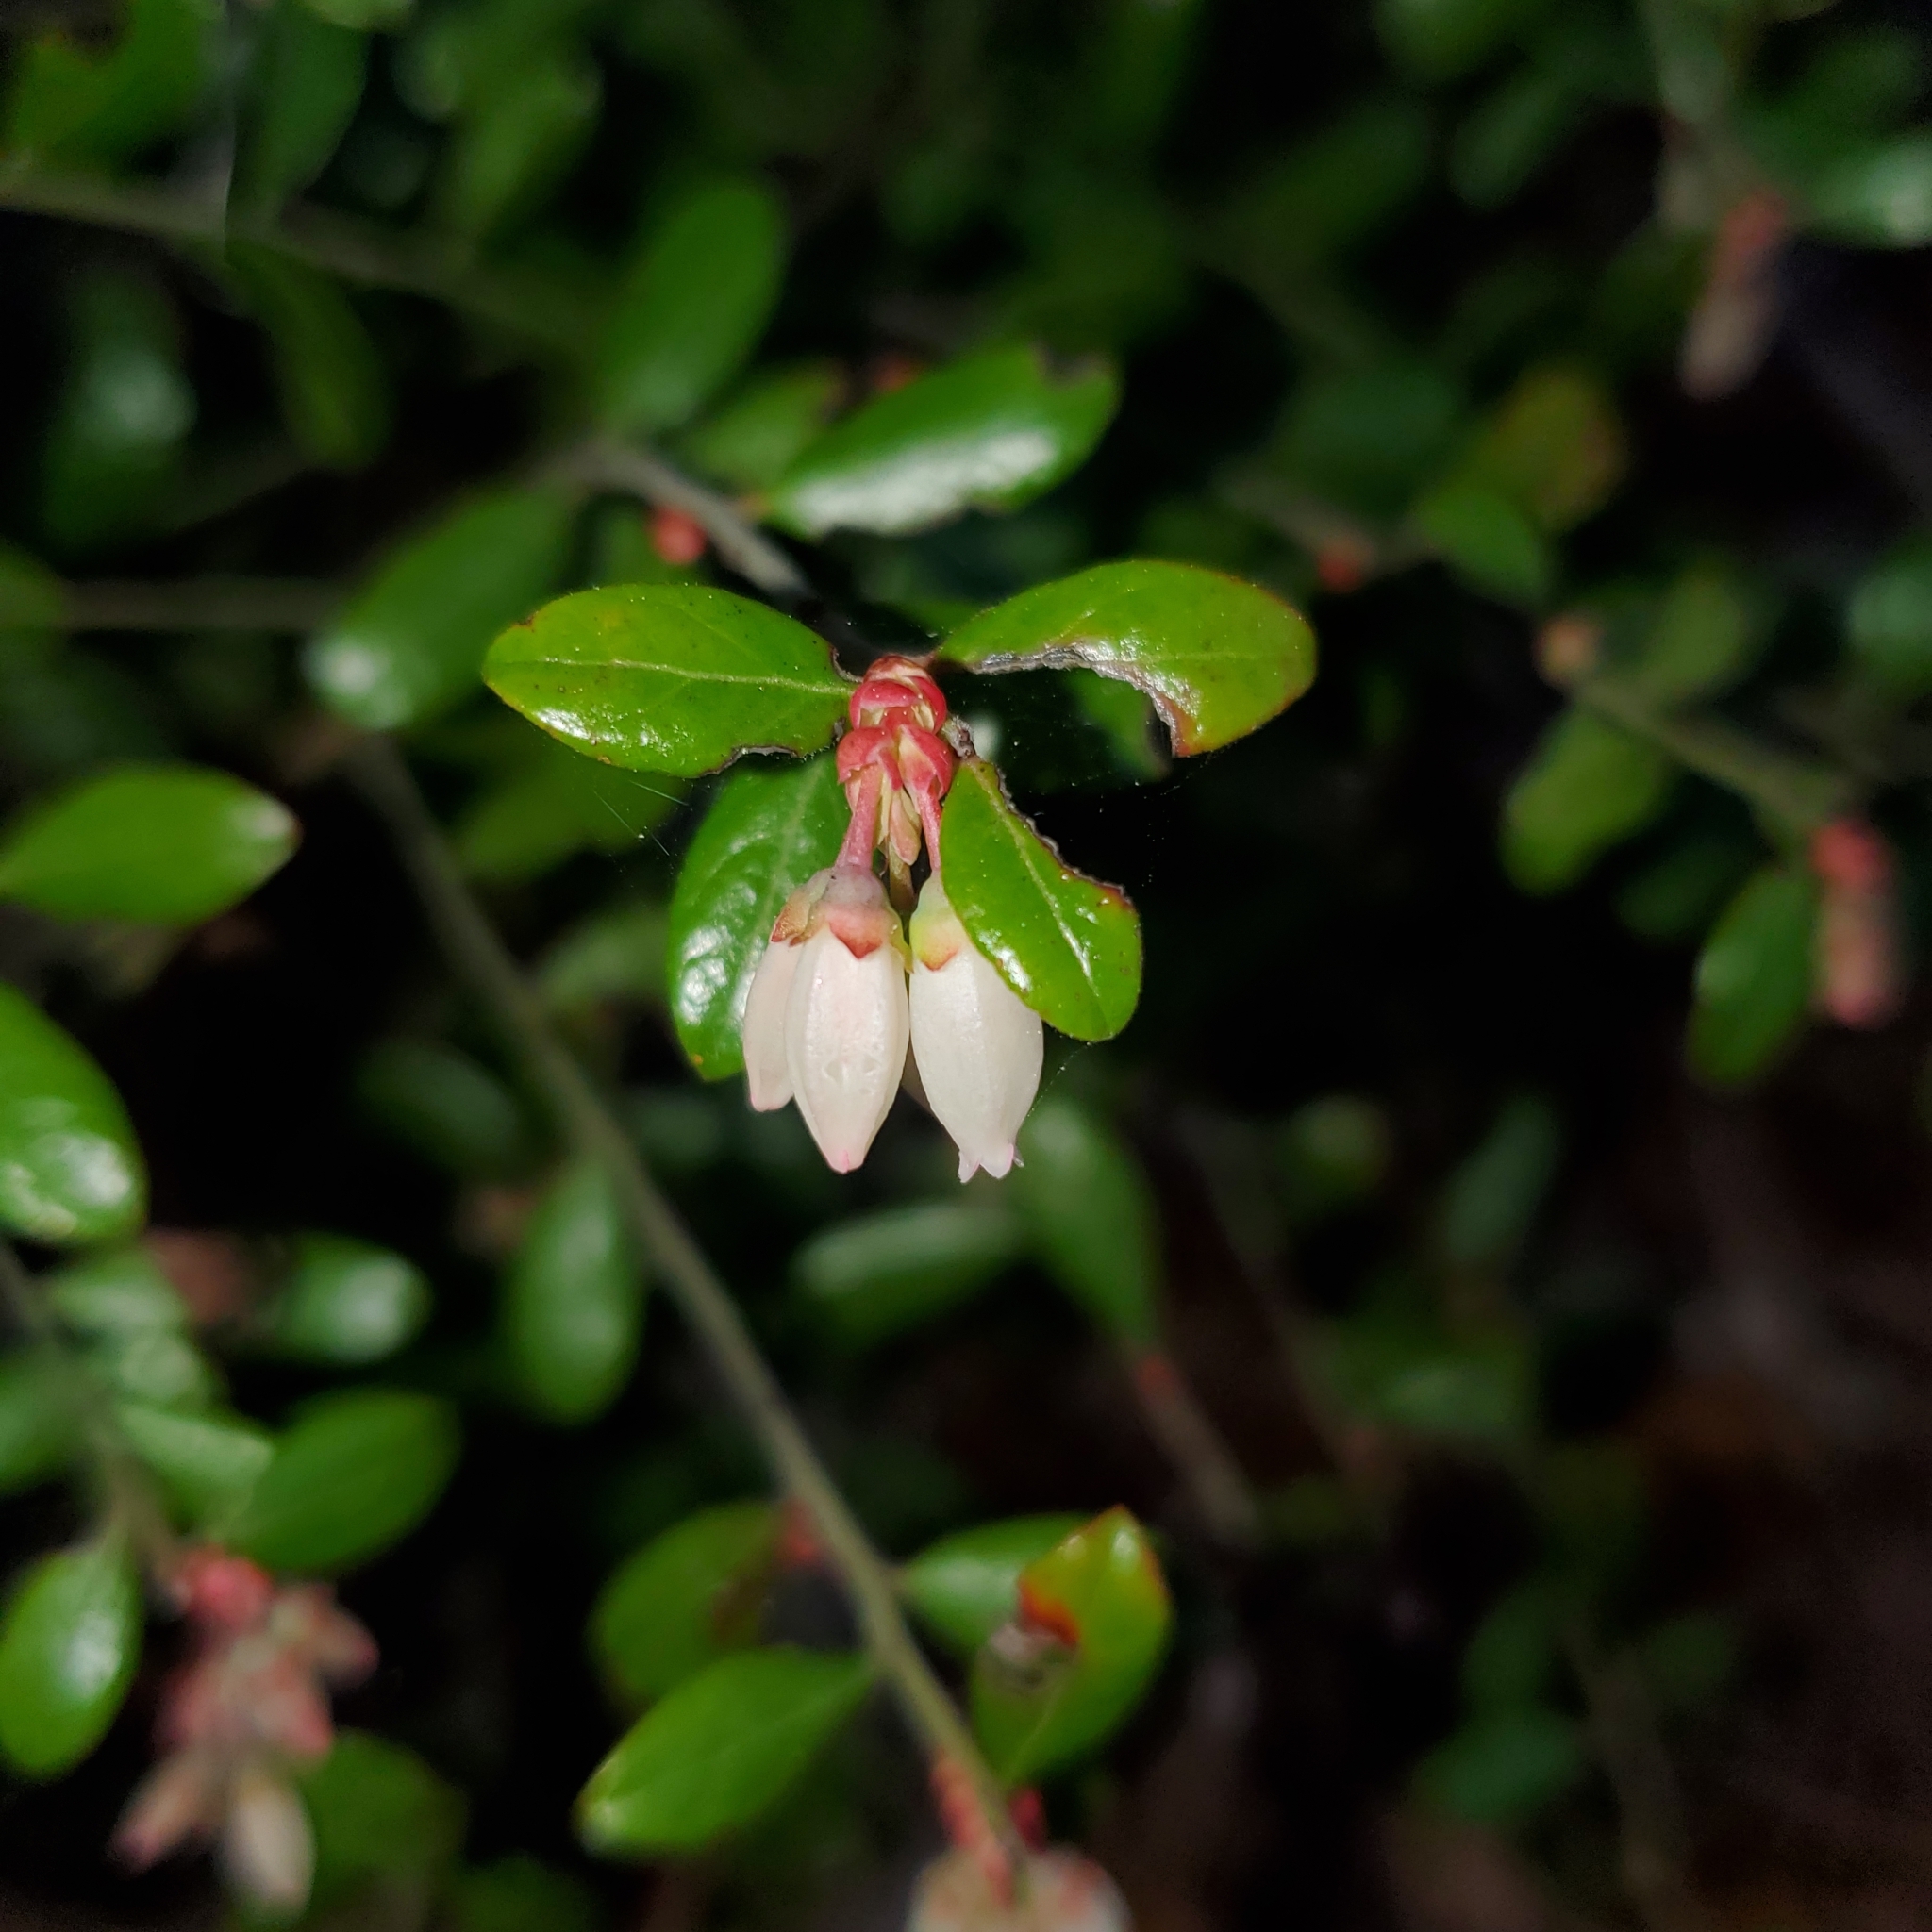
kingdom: Plantae
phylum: Tracheophyta
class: Magnoliopsida
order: Ericales
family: Ericaceae
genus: Vaccinium
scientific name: Vaccinium myrsinites
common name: Evergreen blueberry
